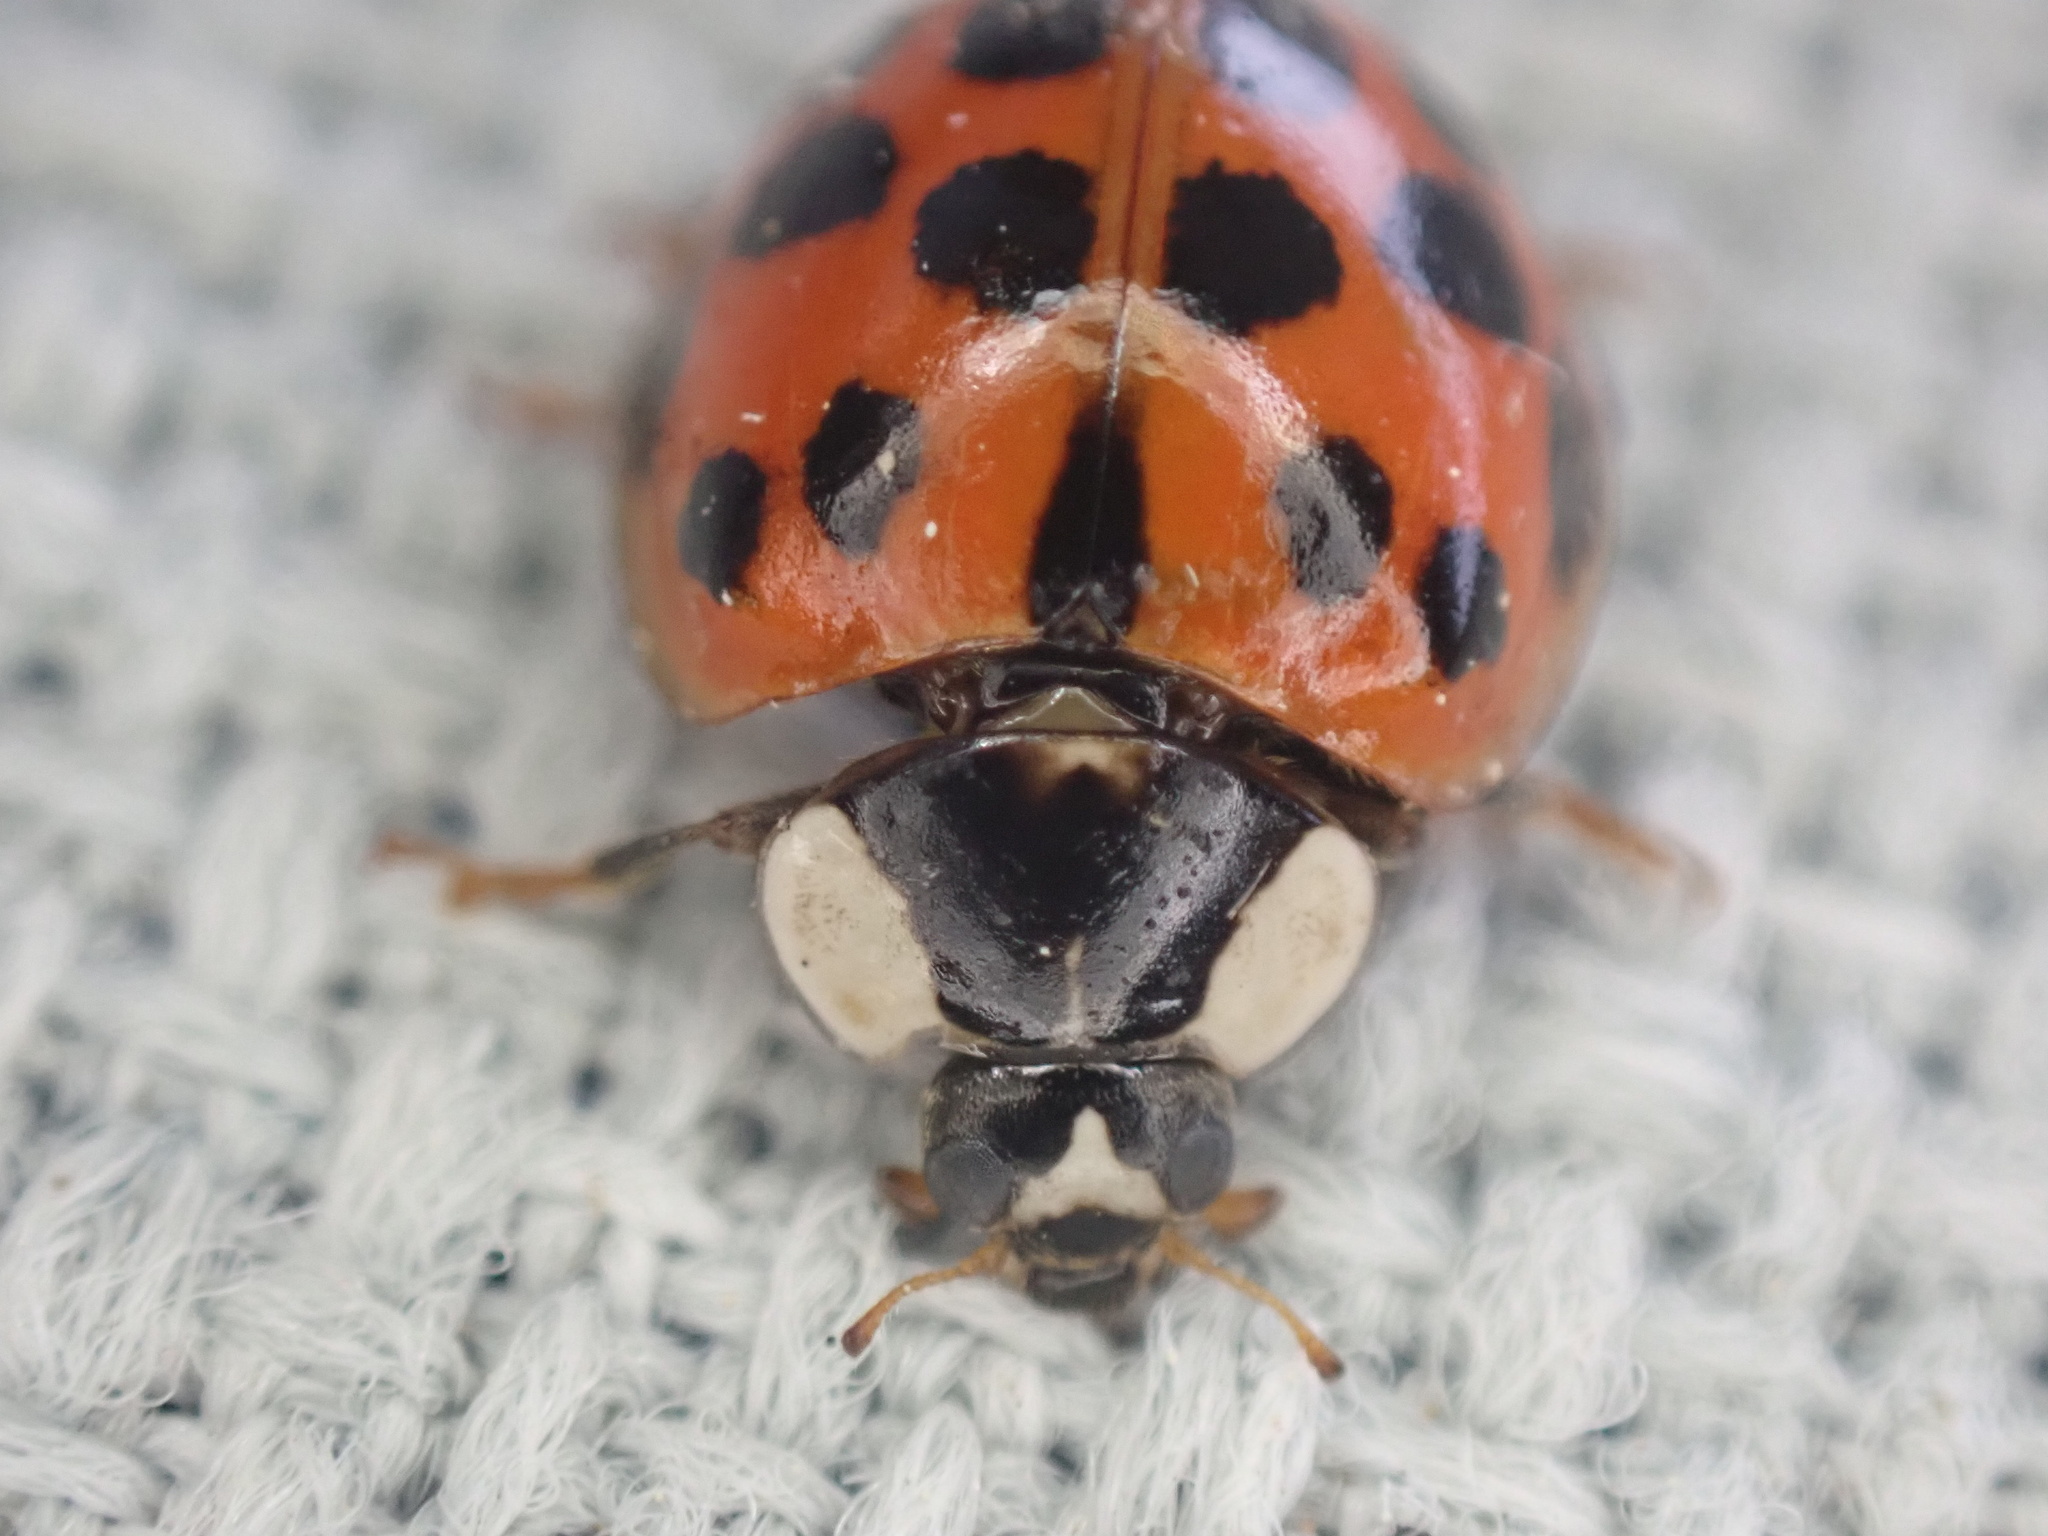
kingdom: Animalia
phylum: Arthropoda
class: Insecta
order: Coleoptera
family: Coccinellidae
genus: Harmonia
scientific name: Harmonia axyridis
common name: Harlequin ladybird
